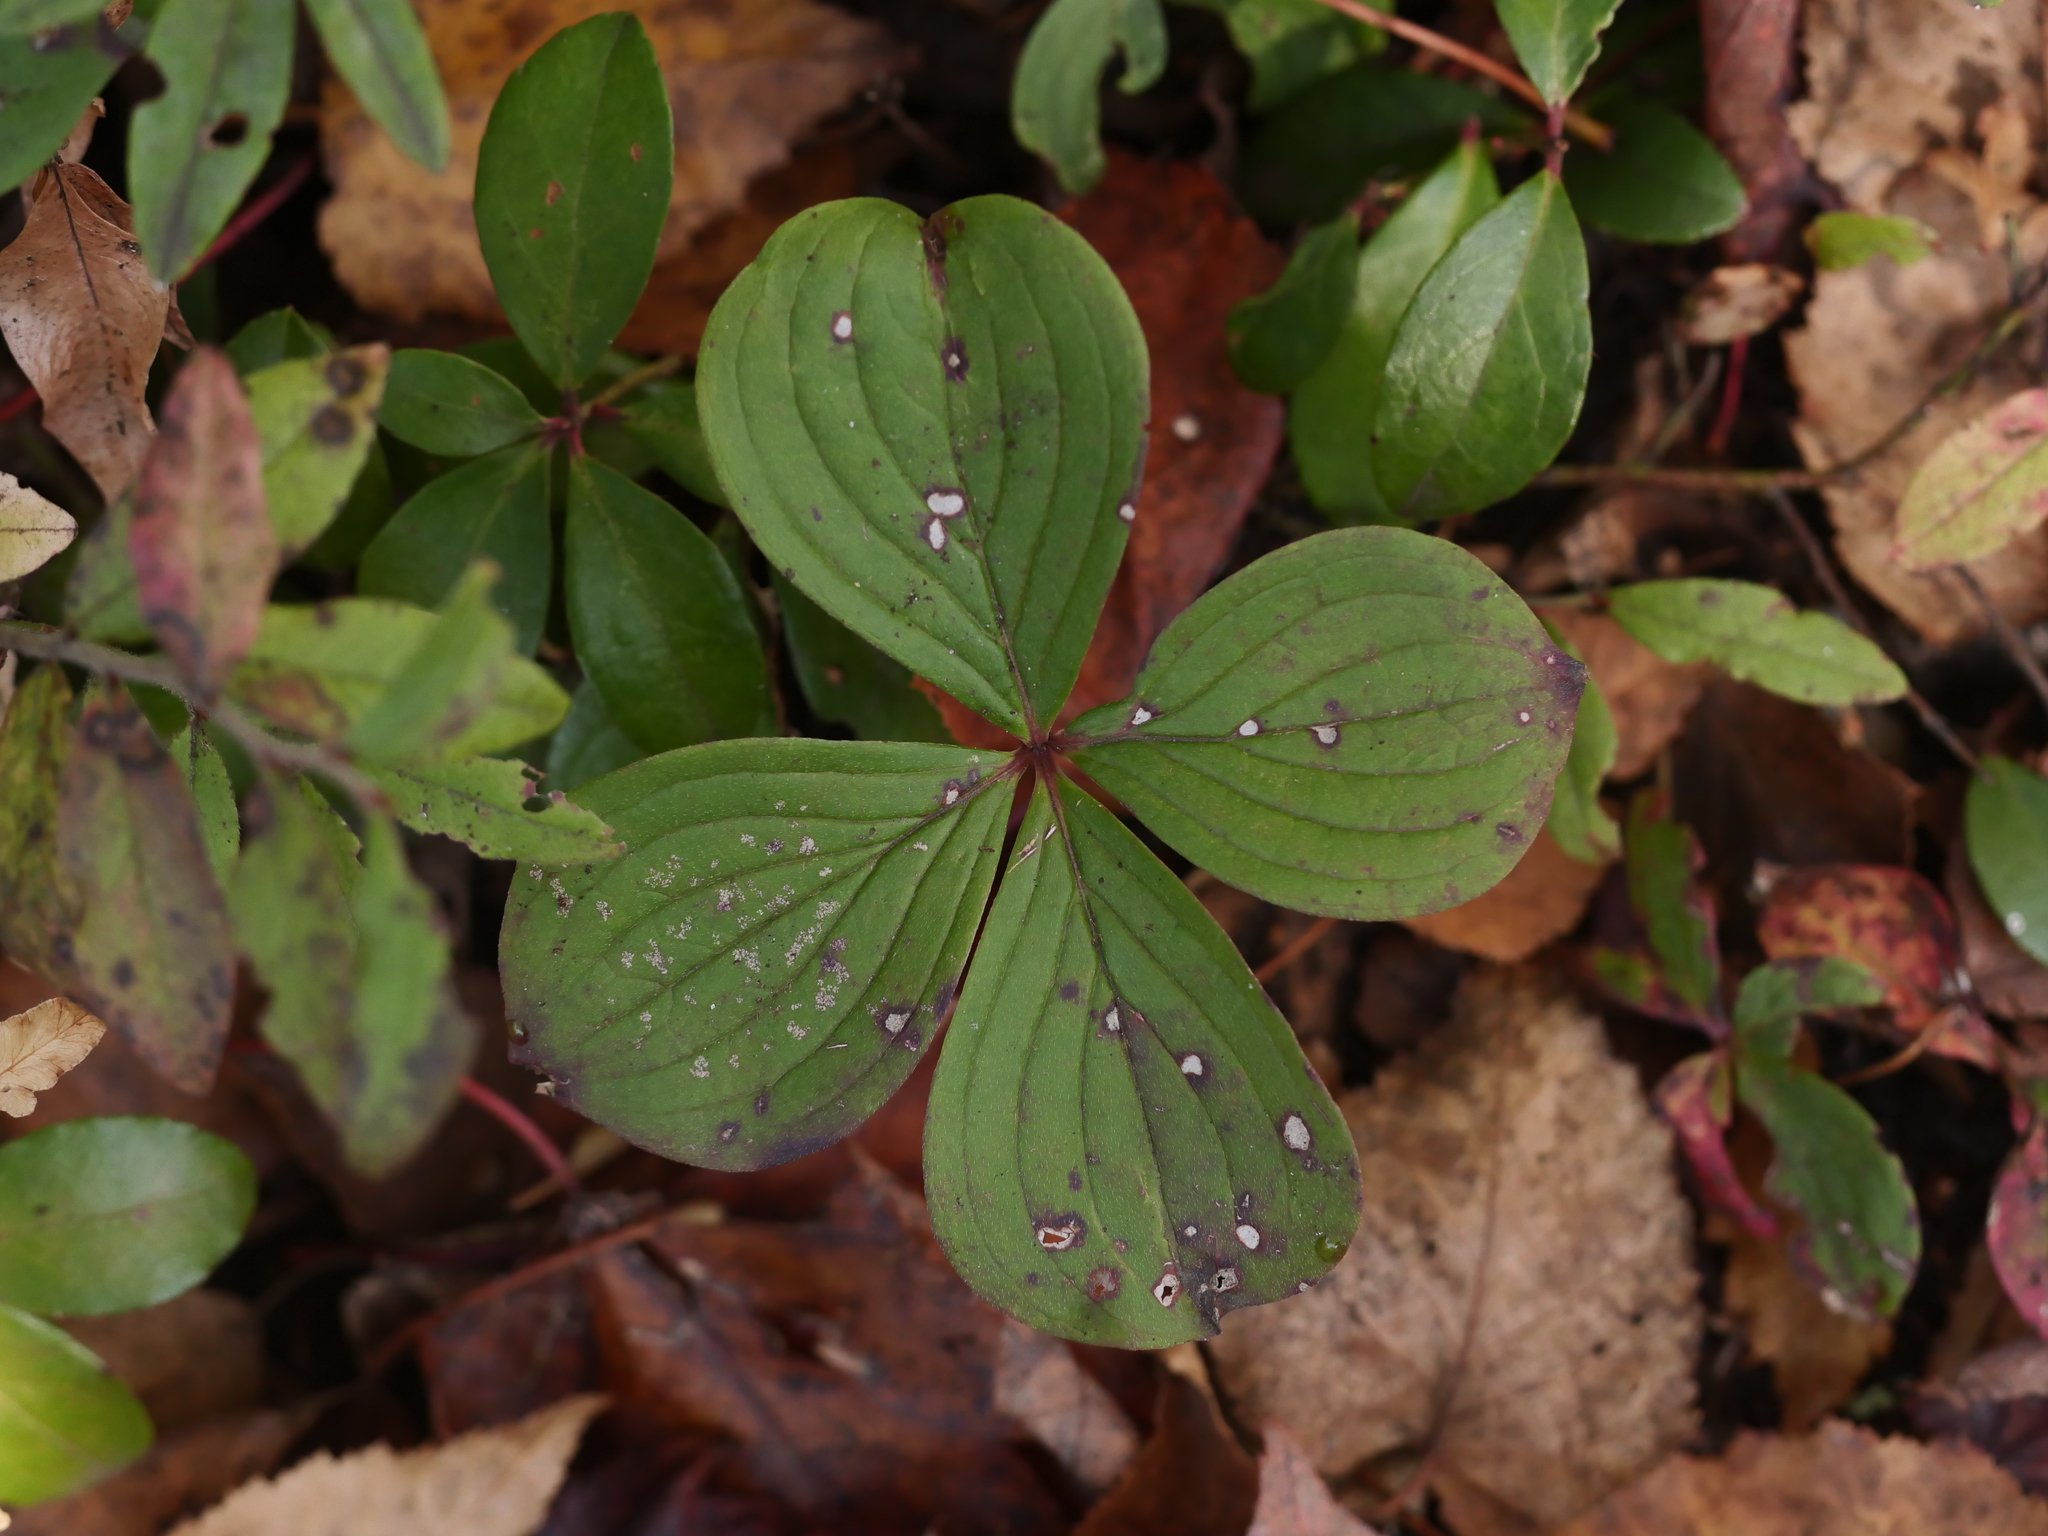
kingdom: Plantae
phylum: Tracheophyta
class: Magnoliopsida
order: Cornales
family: Cornaceae
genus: Cornus
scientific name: Cornus canadensis
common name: Creeping dogwood
